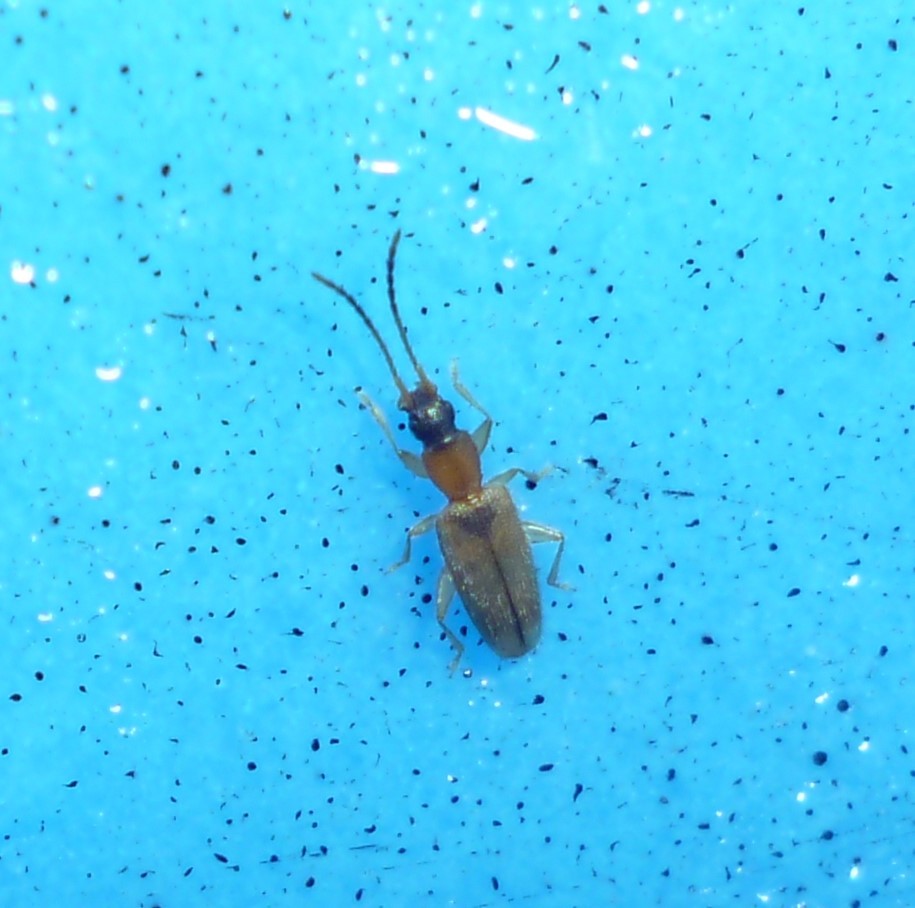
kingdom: Animalia
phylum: Arthropoda
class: Insecta
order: Coleoptera
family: Silvanidae
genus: Telephanus
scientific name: Telephanus velox
